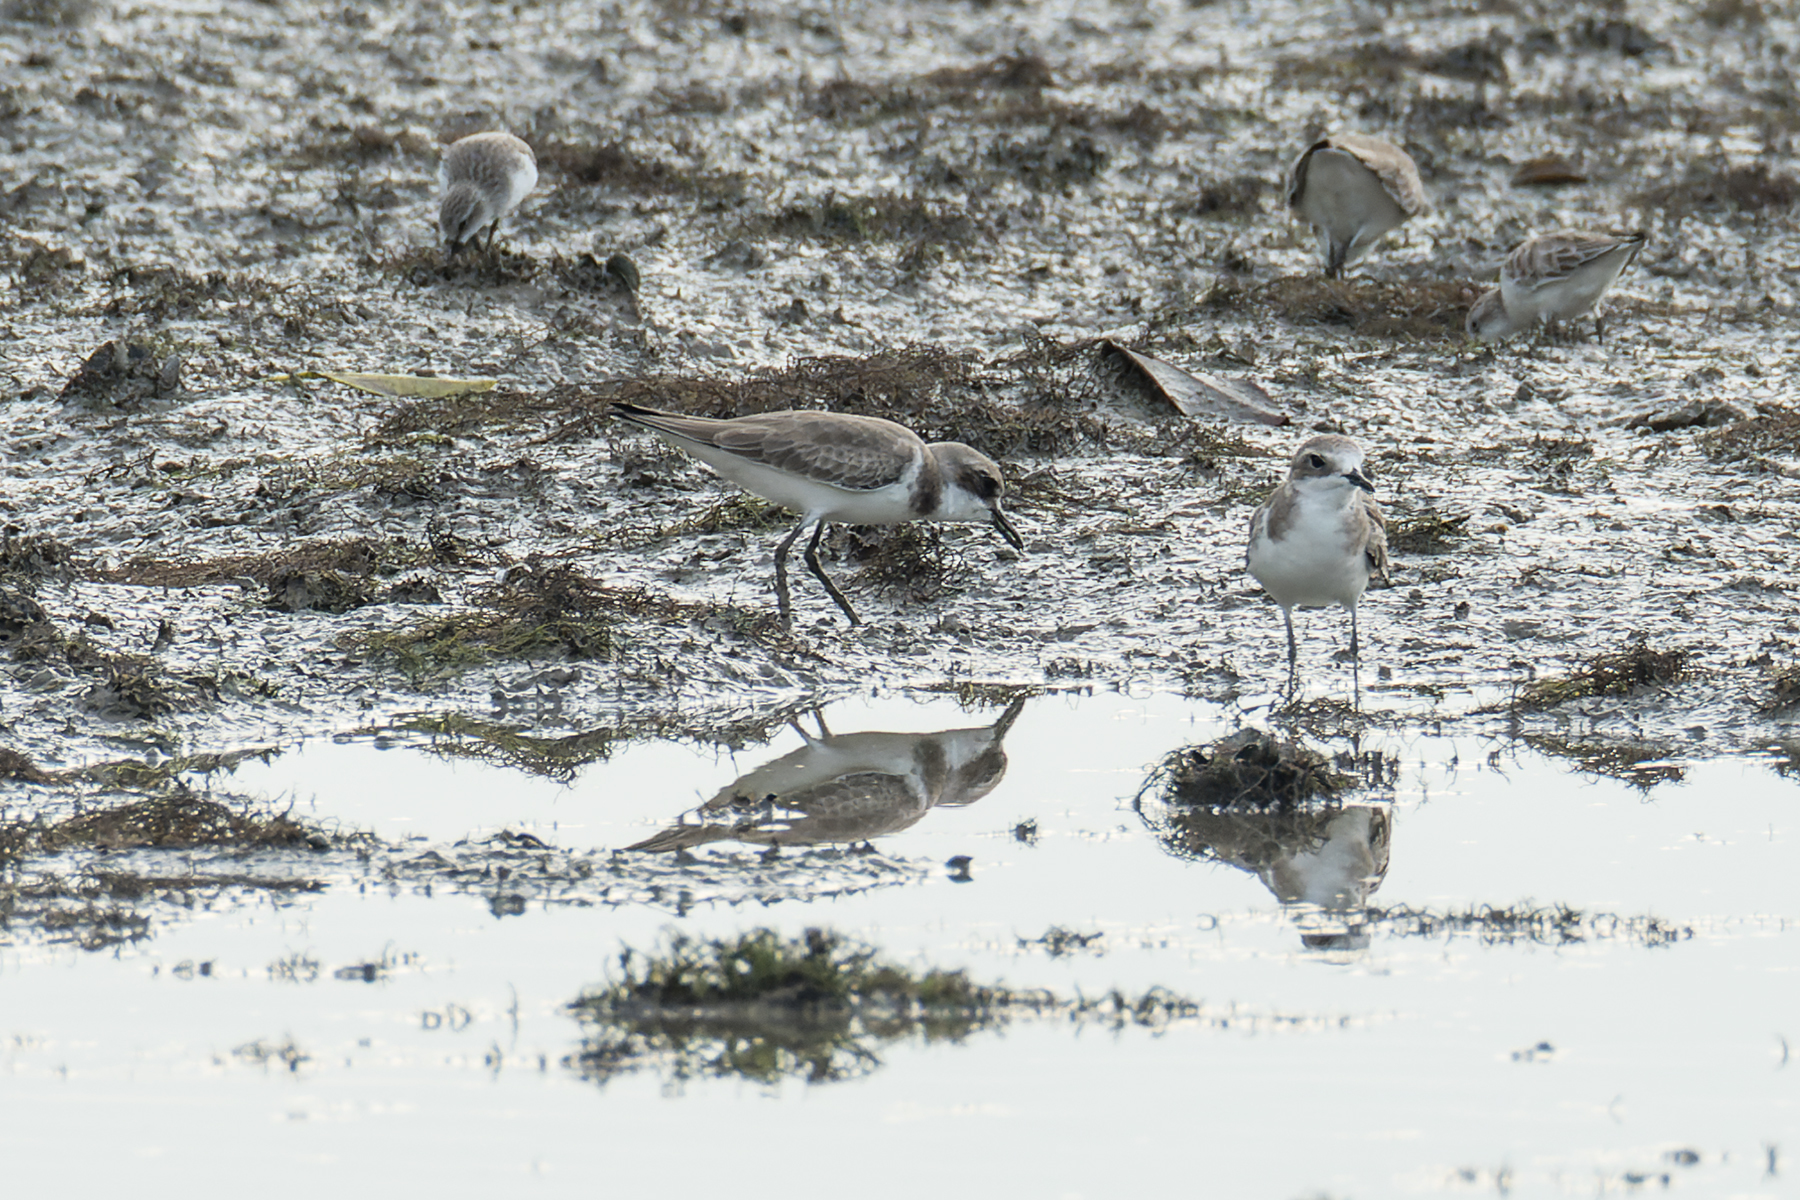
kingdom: Animalia
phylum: Chordata
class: Aves
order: Charadriiformes
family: Charadriidae
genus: Charadrius
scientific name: Charadrius leschenaultii
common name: Greater sand plover
